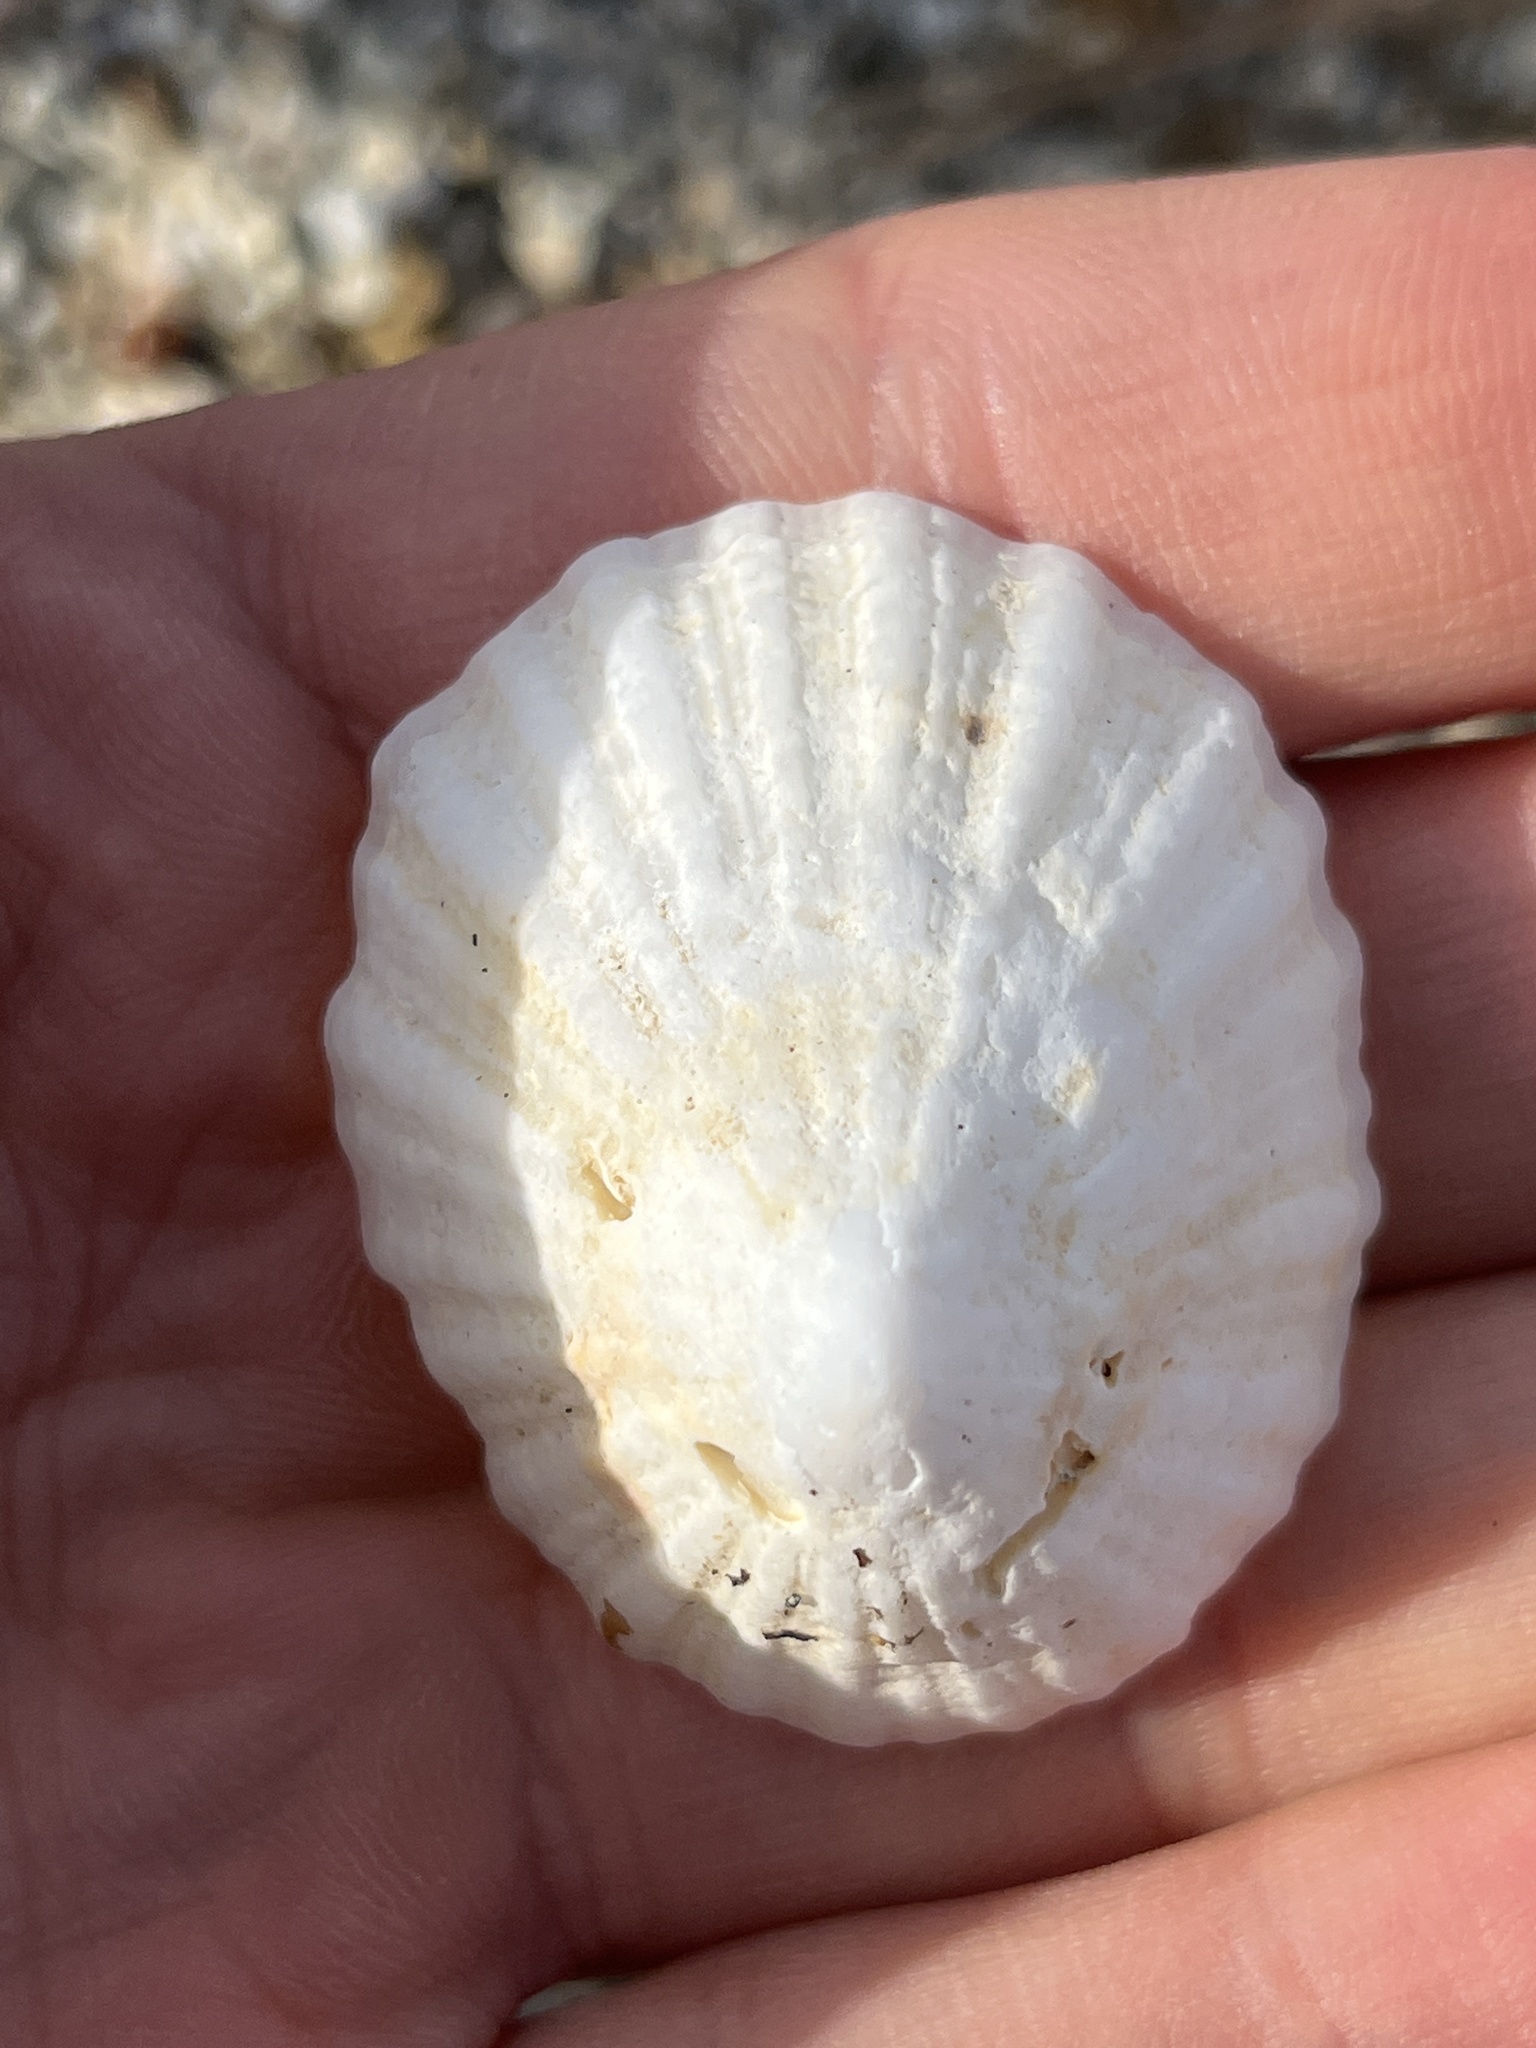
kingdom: Animalia
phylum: Mollusca
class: Gastropoda
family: Lottiidae
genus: Niveotectura
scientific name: Niveotectura pallida
